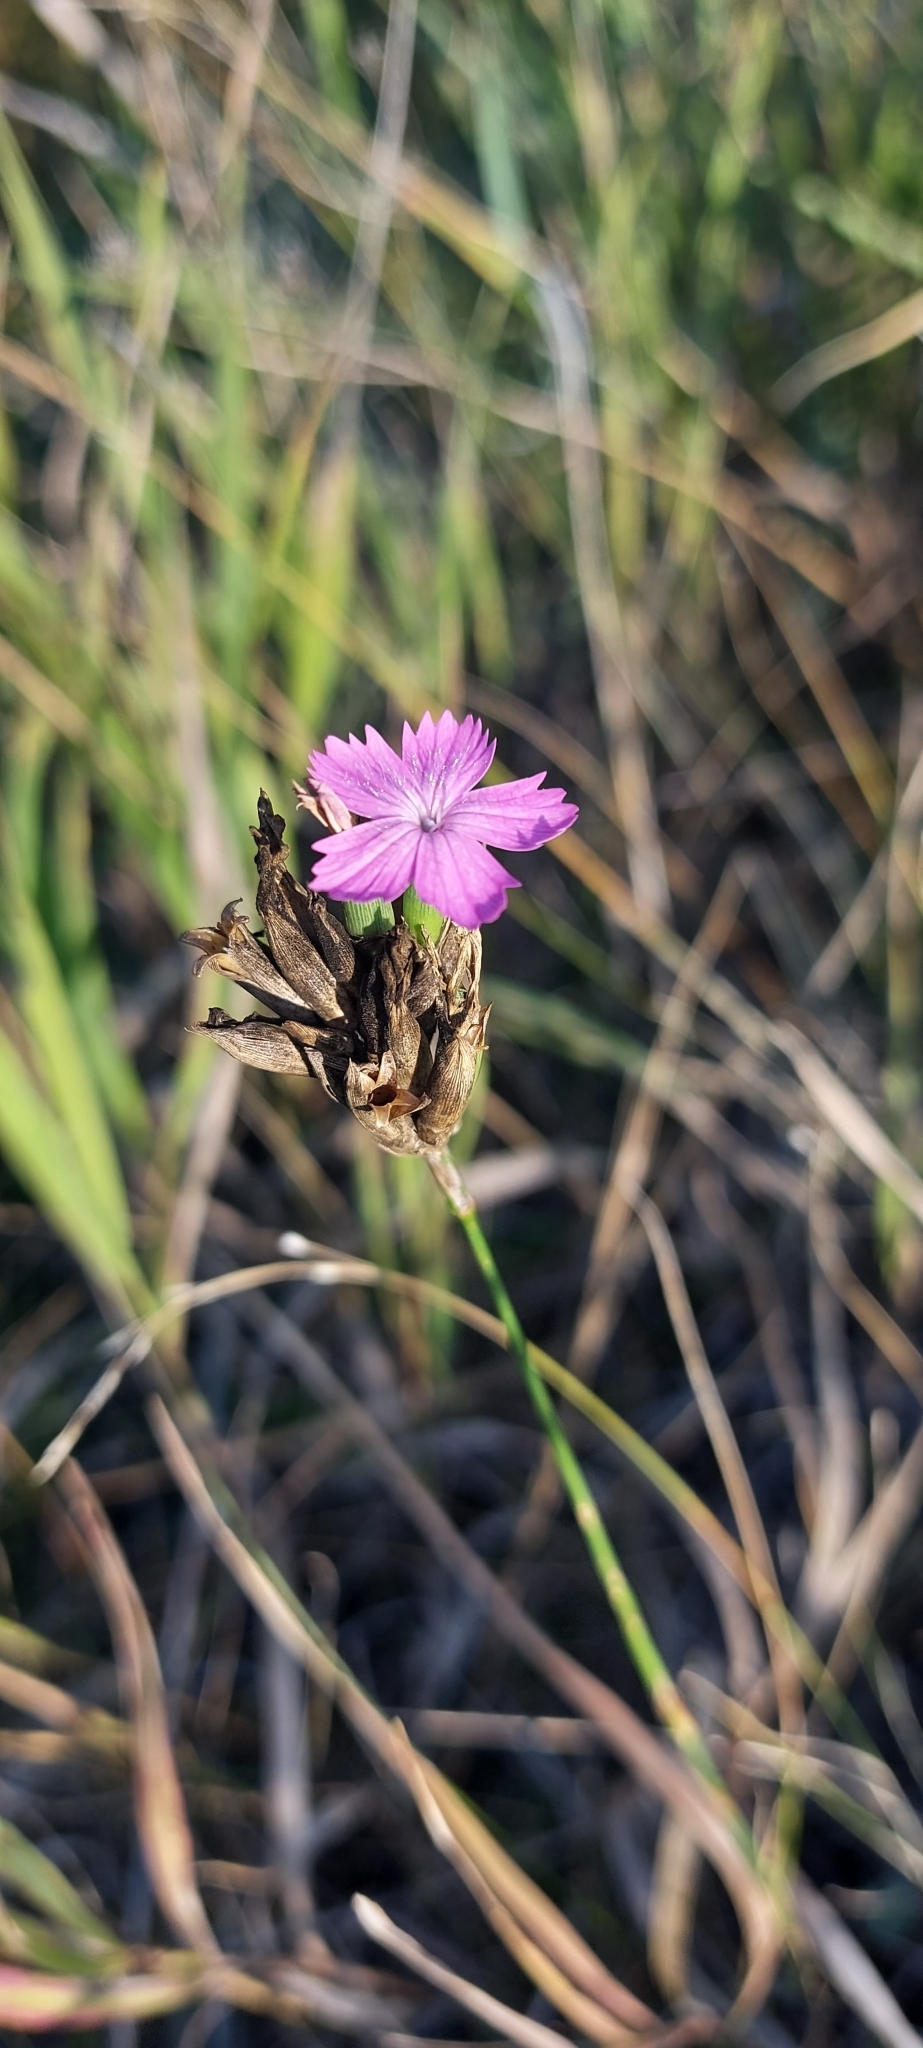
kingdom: Plantae
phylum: Tracheophyta
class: Magnoliopsida
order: Caryophyllales
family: Caryophyllaceae
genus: Dianthus
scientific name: Dianthus borbasii
